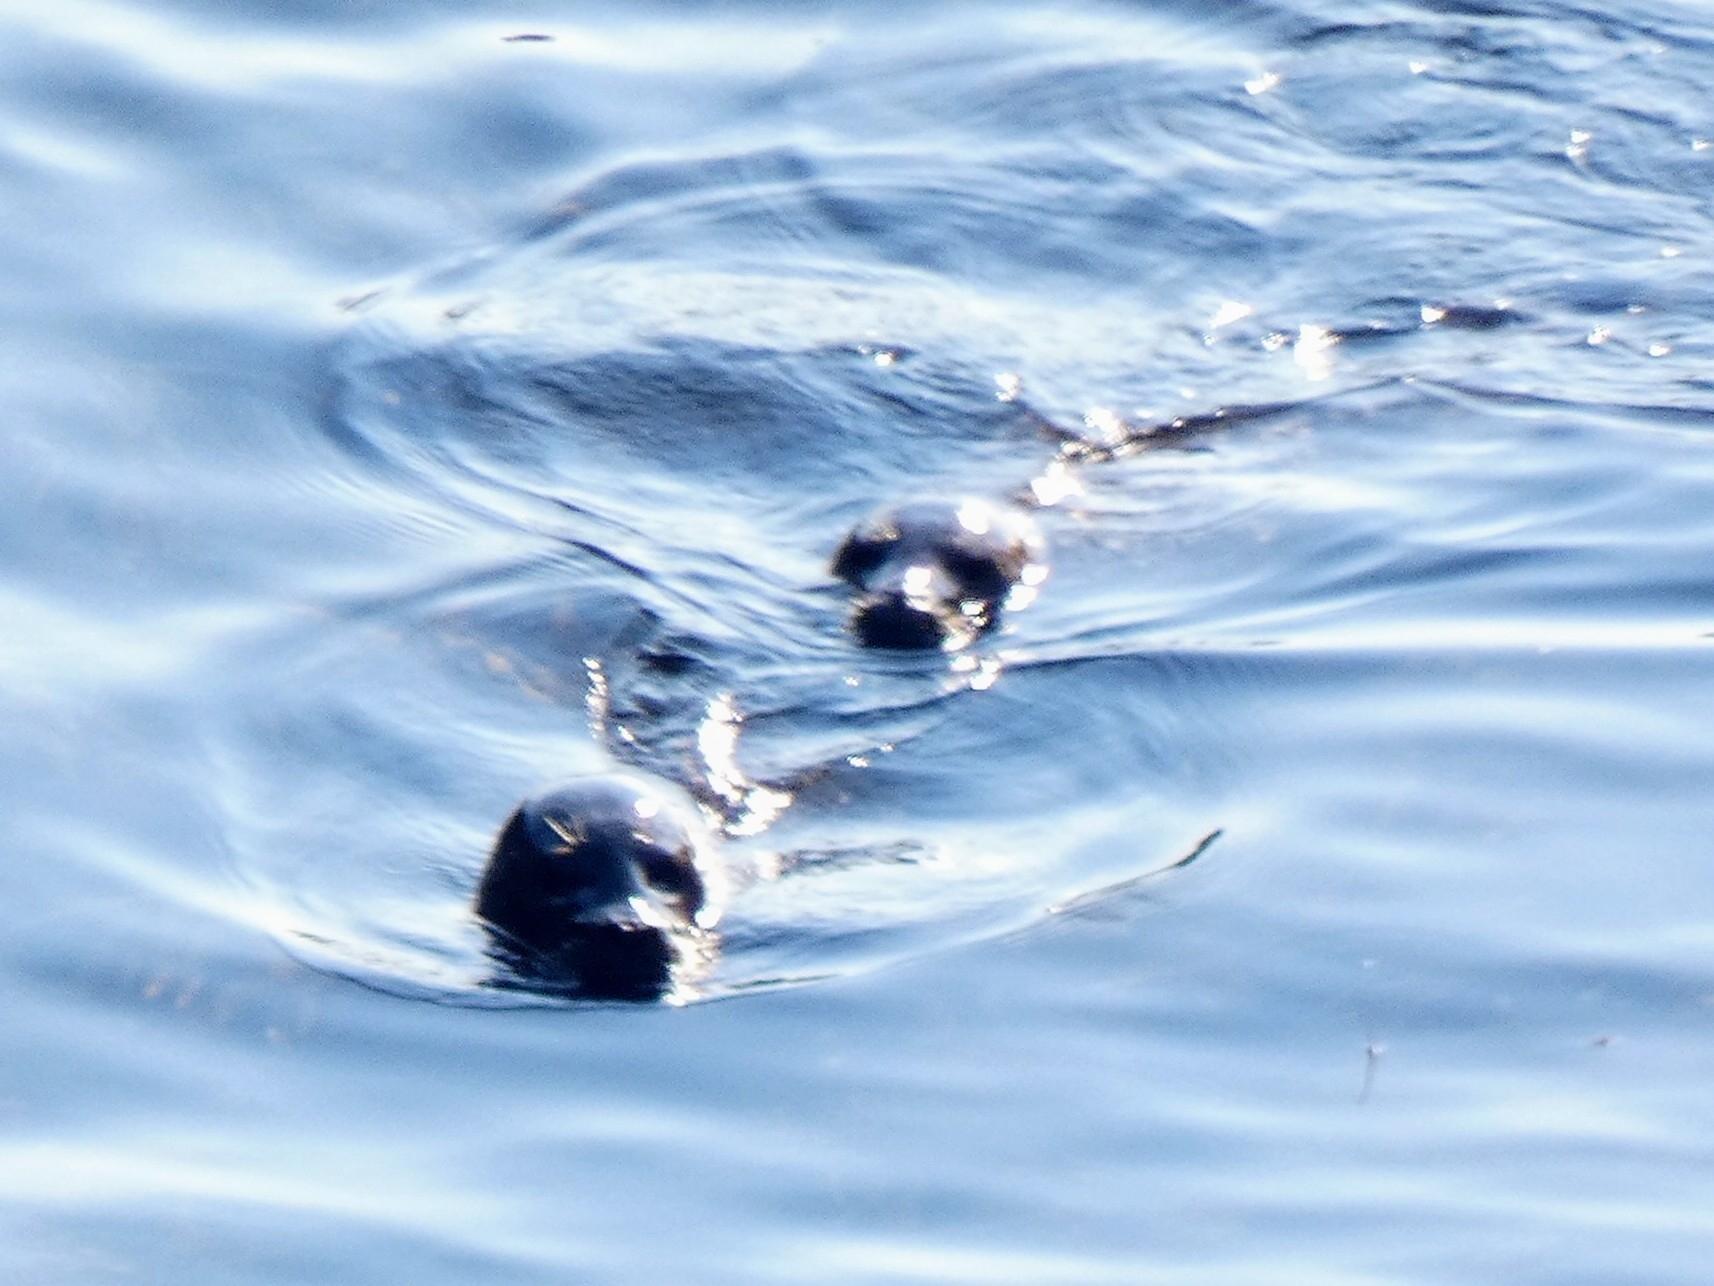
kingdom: Animalia
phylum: Chordata
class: Mammalia
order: Carnivora
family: Phocidae
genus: Phoca
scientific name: Phoca vitulina
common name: Harbor seal
